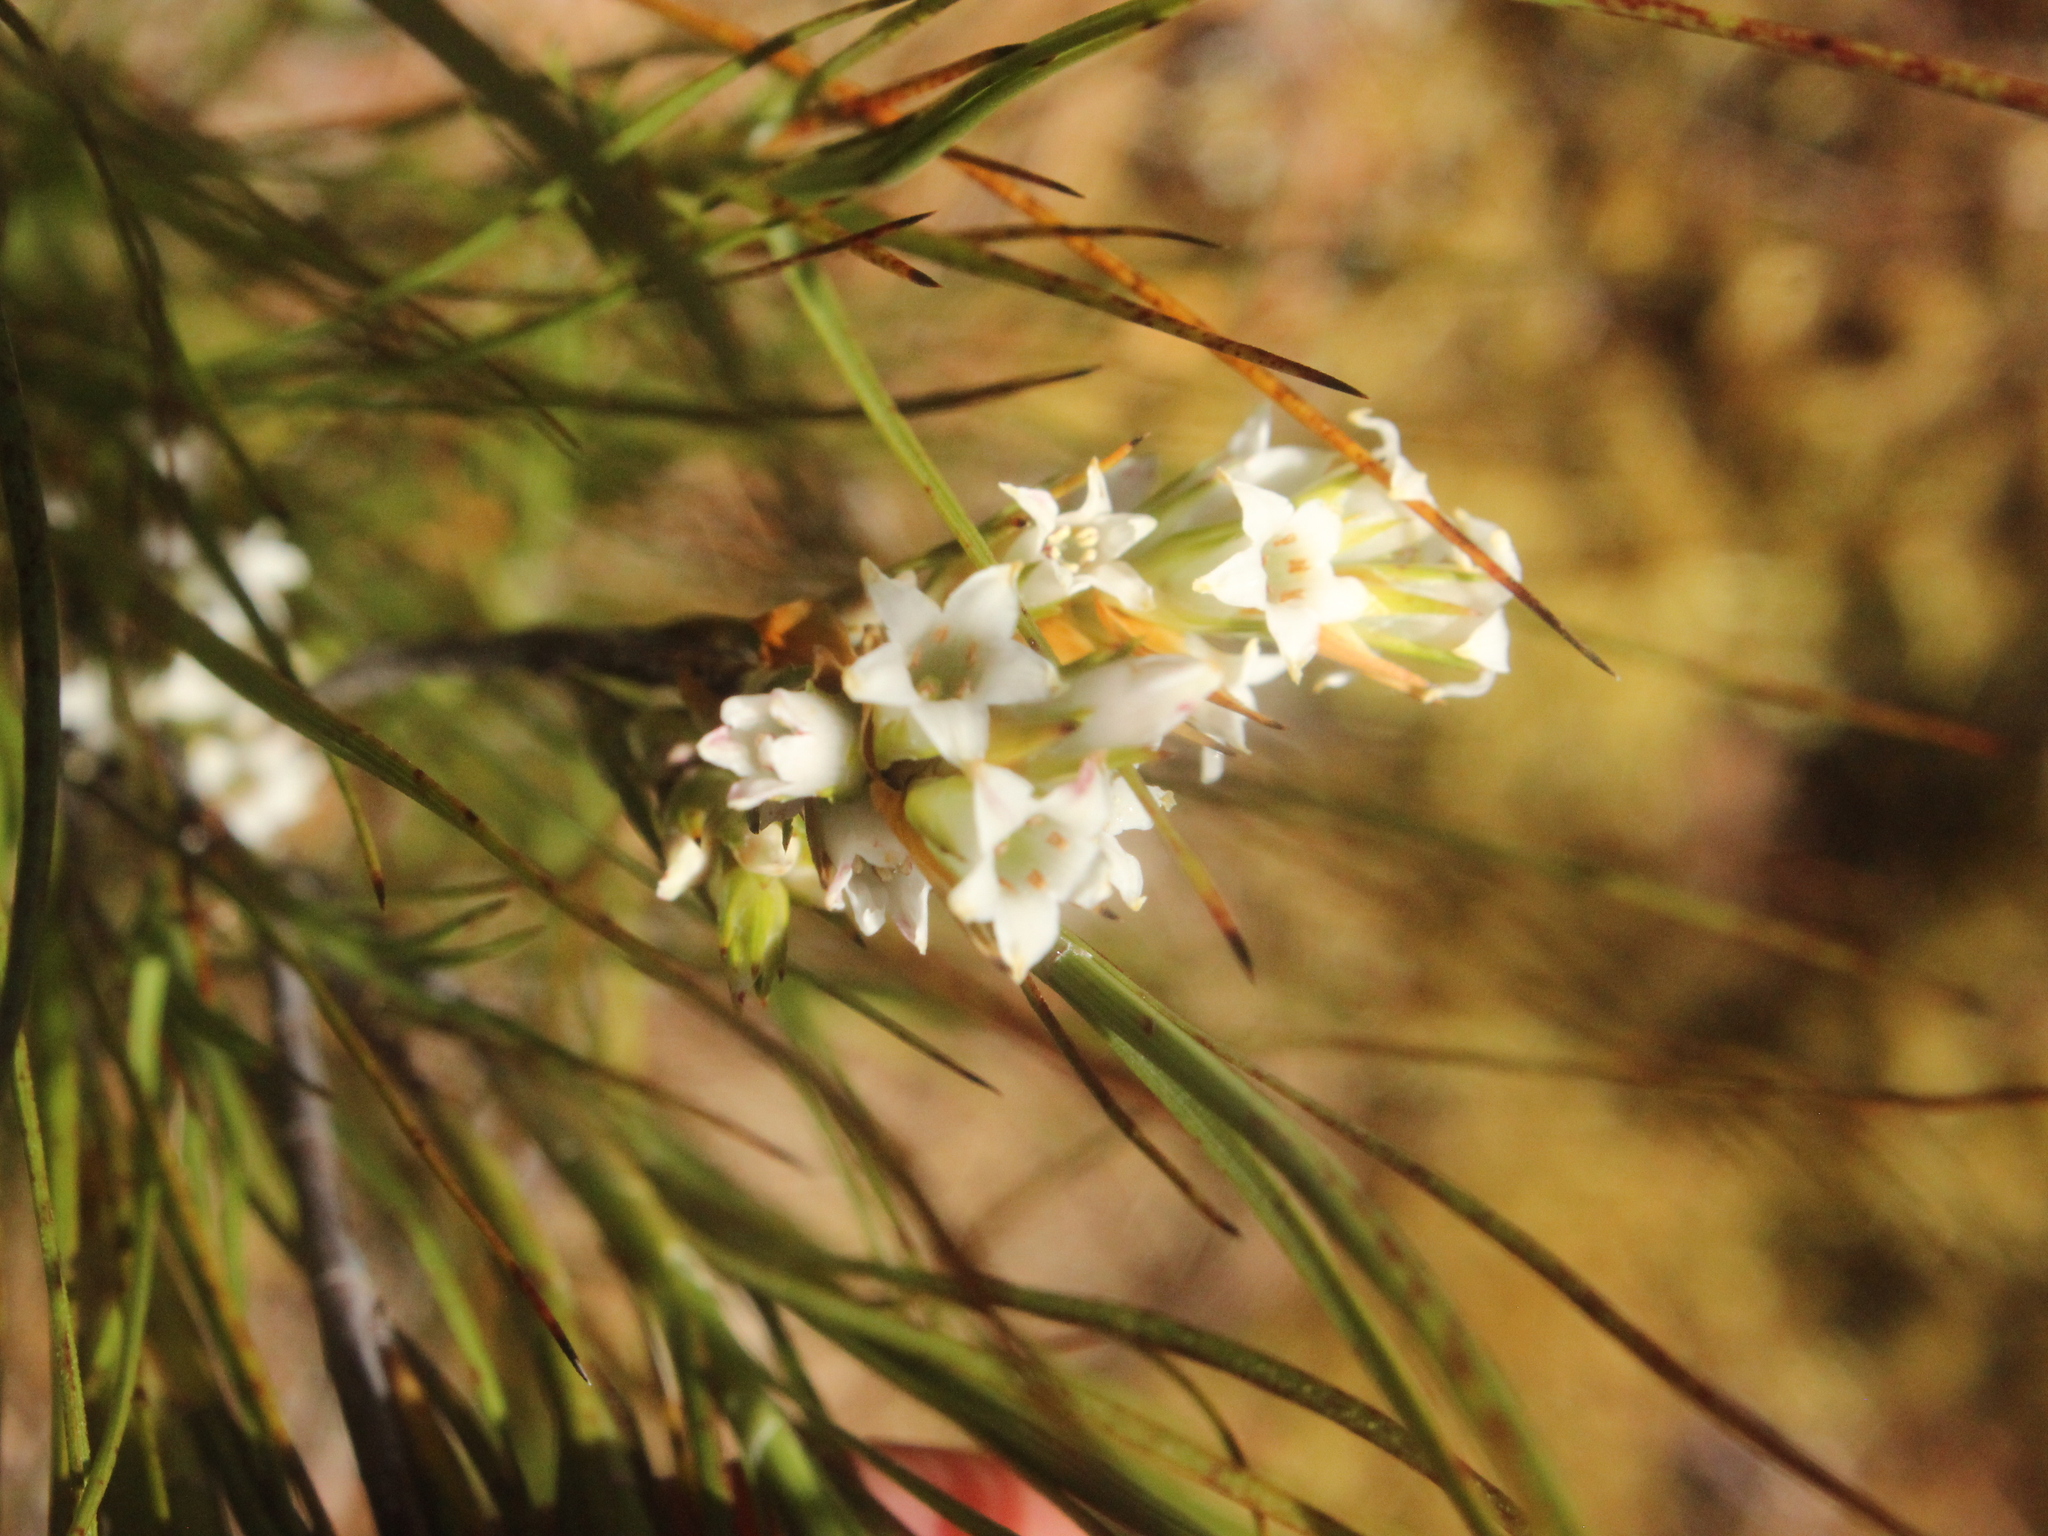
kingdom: Plantae
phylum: Tracheophyta
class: Magnoliopsida
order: Ericales
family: Ericaceae
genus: Dracophyllum
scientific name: Dracophyllum filifolium
